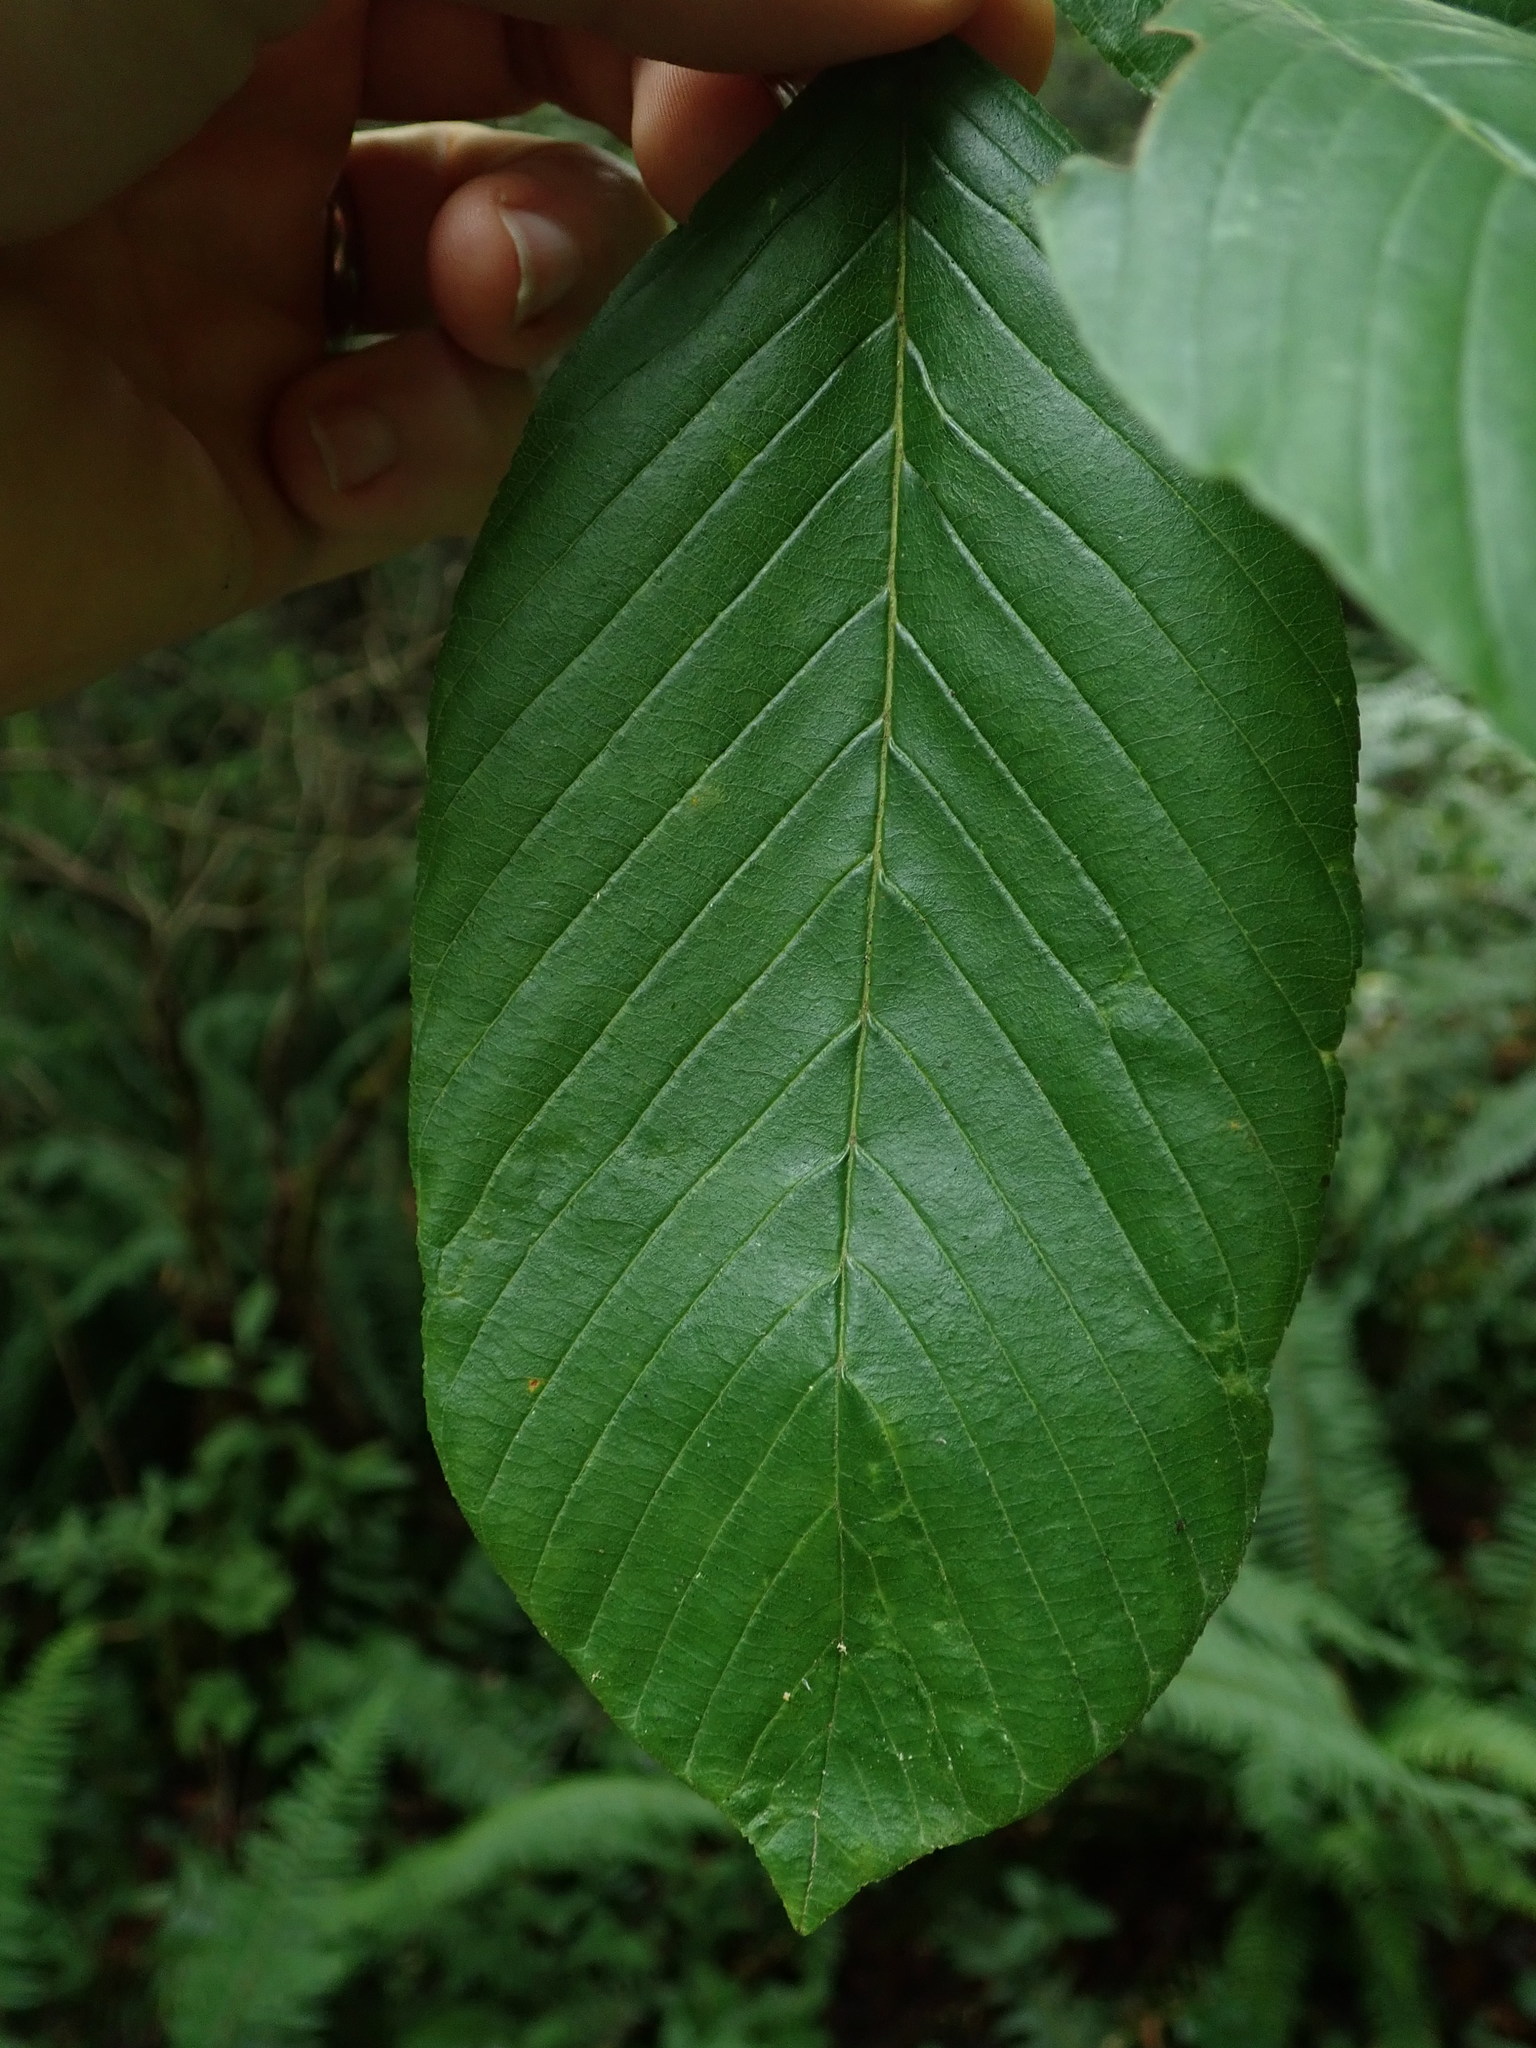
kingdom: Plantae
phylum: Tracheophyta
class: Magnoliopsida
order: Rosales
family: Rhamnaceae
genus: Frangula
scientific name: Frangula purshiana
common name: Cascara buckthorn
